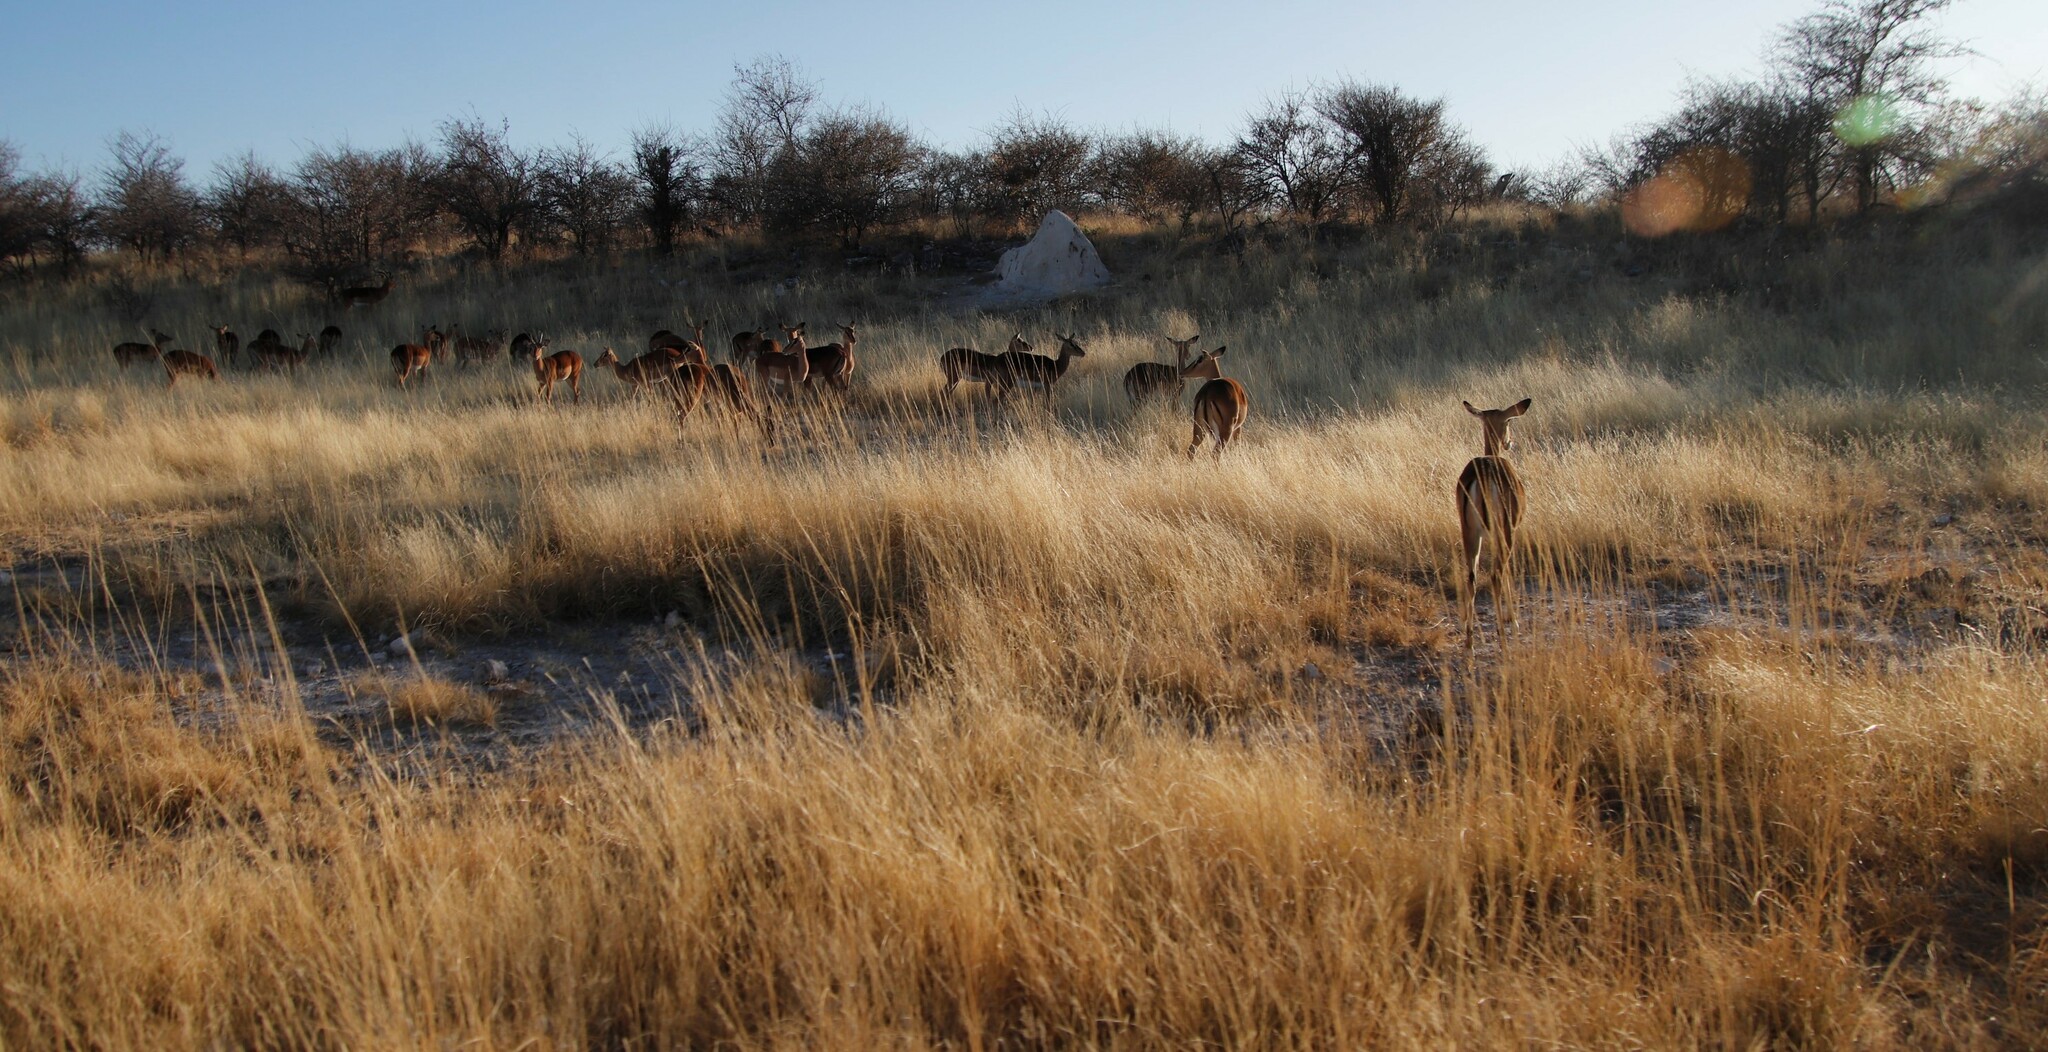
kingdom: Animalia
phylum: Chordata
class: Mammalia
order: Artiodactyla
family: Bovidae
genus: Aepyceros
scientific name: Aepyceros melampus
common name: Impala
